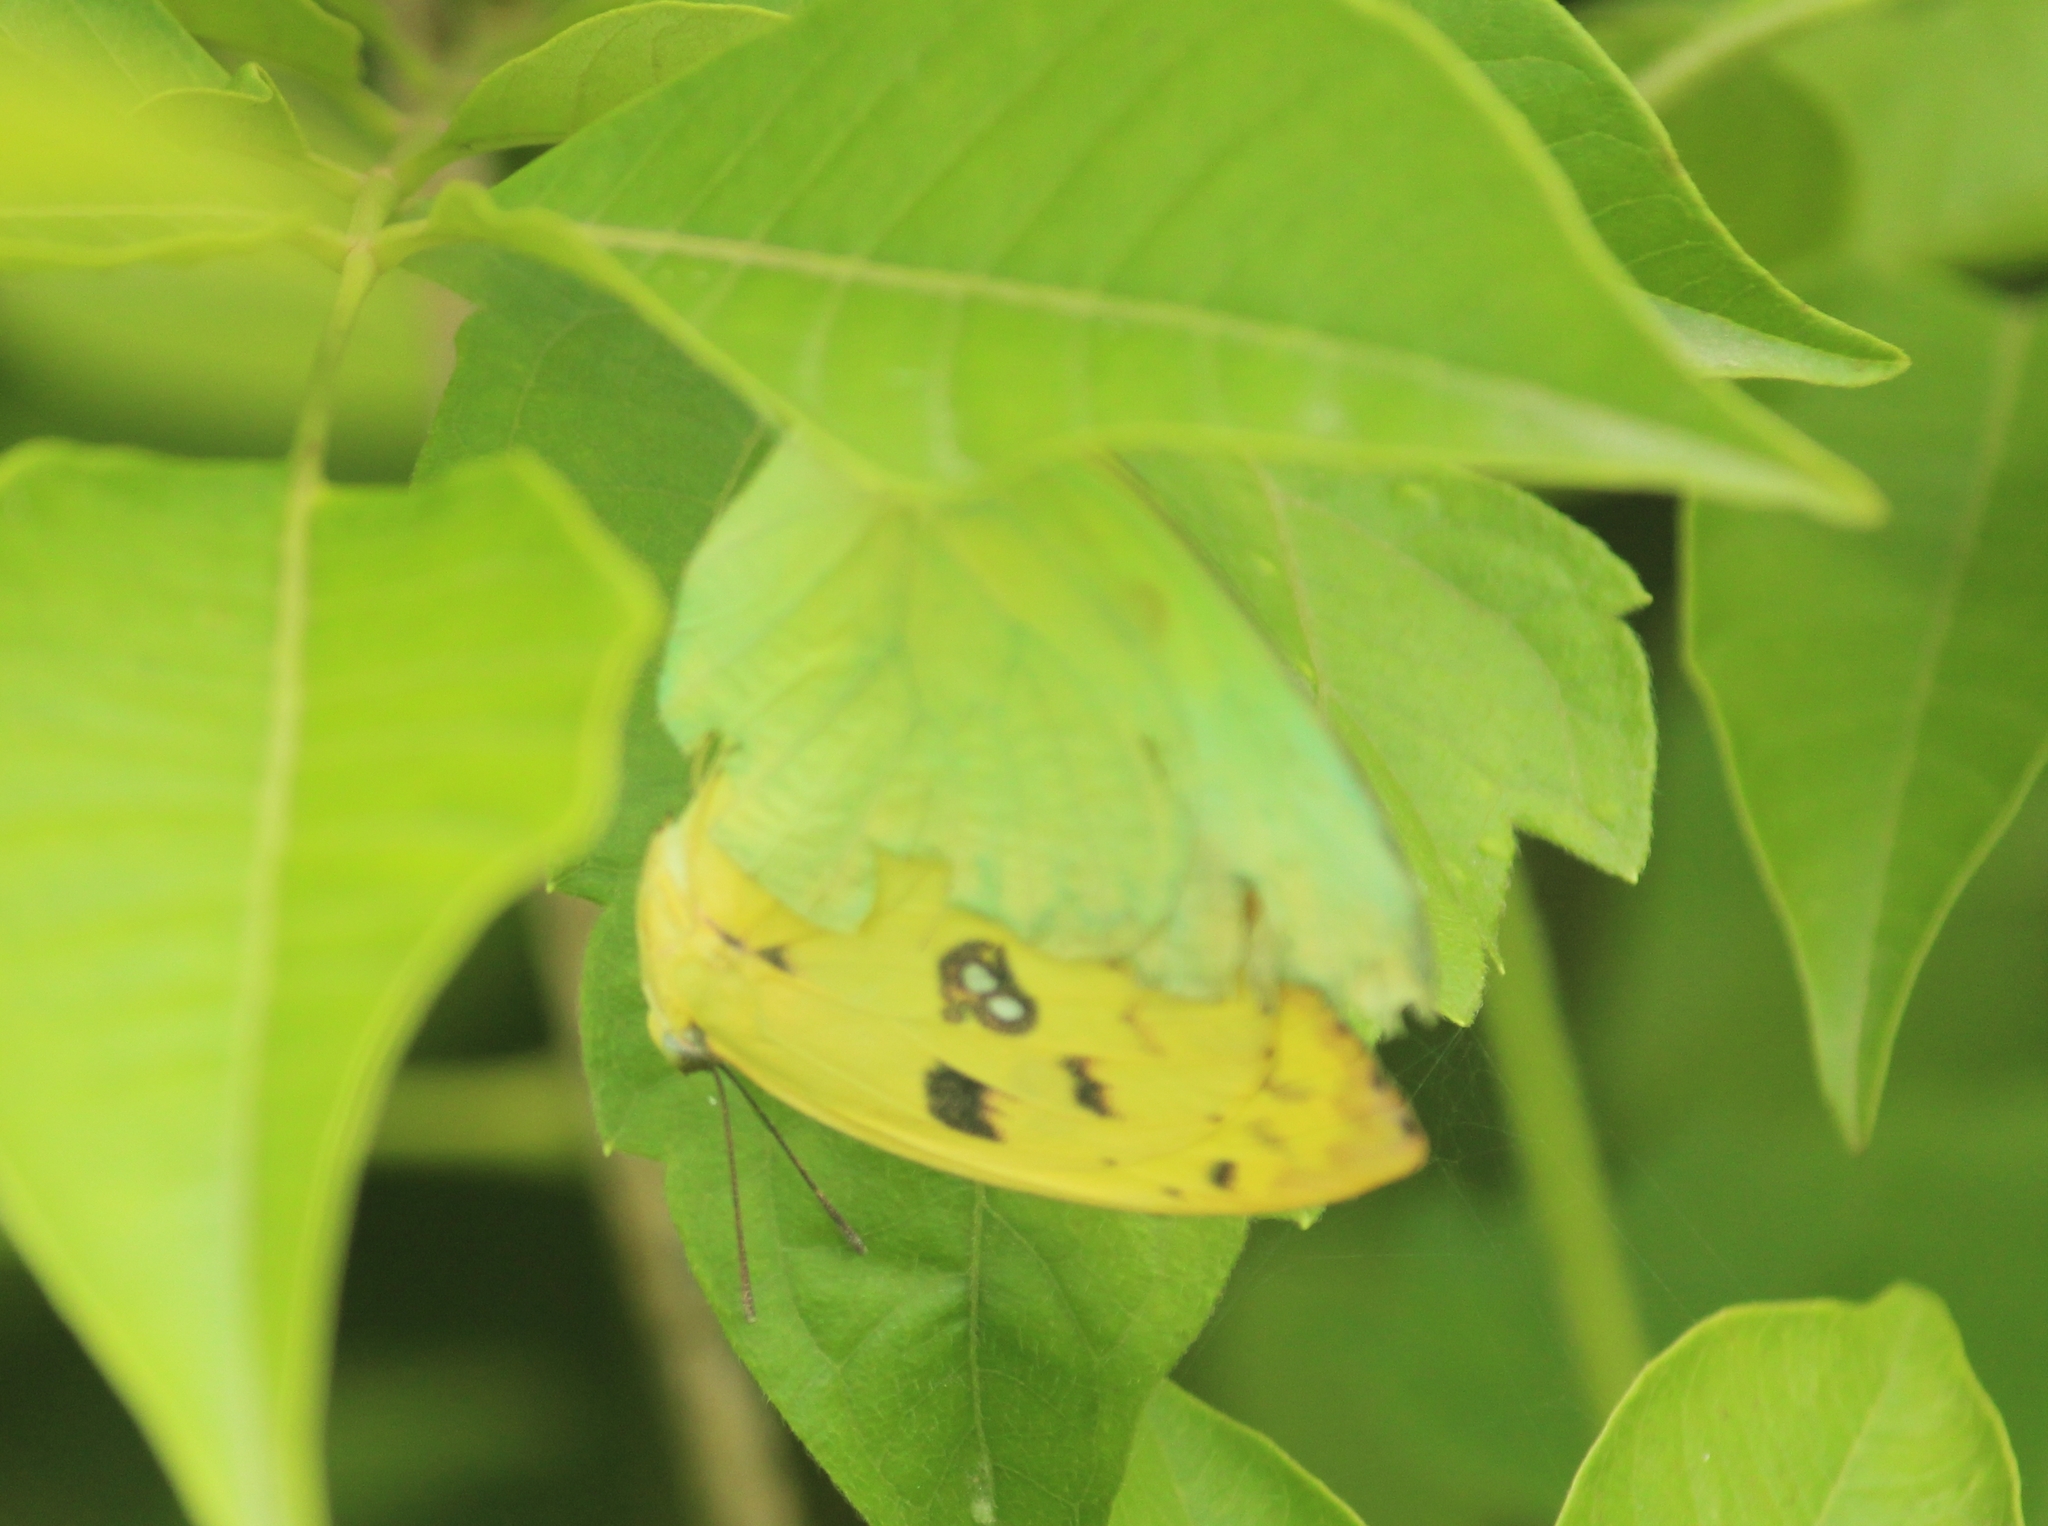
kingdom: Animalia
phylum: Arthropoda
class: Insecta
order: Lepidoptera
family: Pieridae
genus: Catopsilia
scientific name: Catopsilia pomona
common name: Common emigrant
